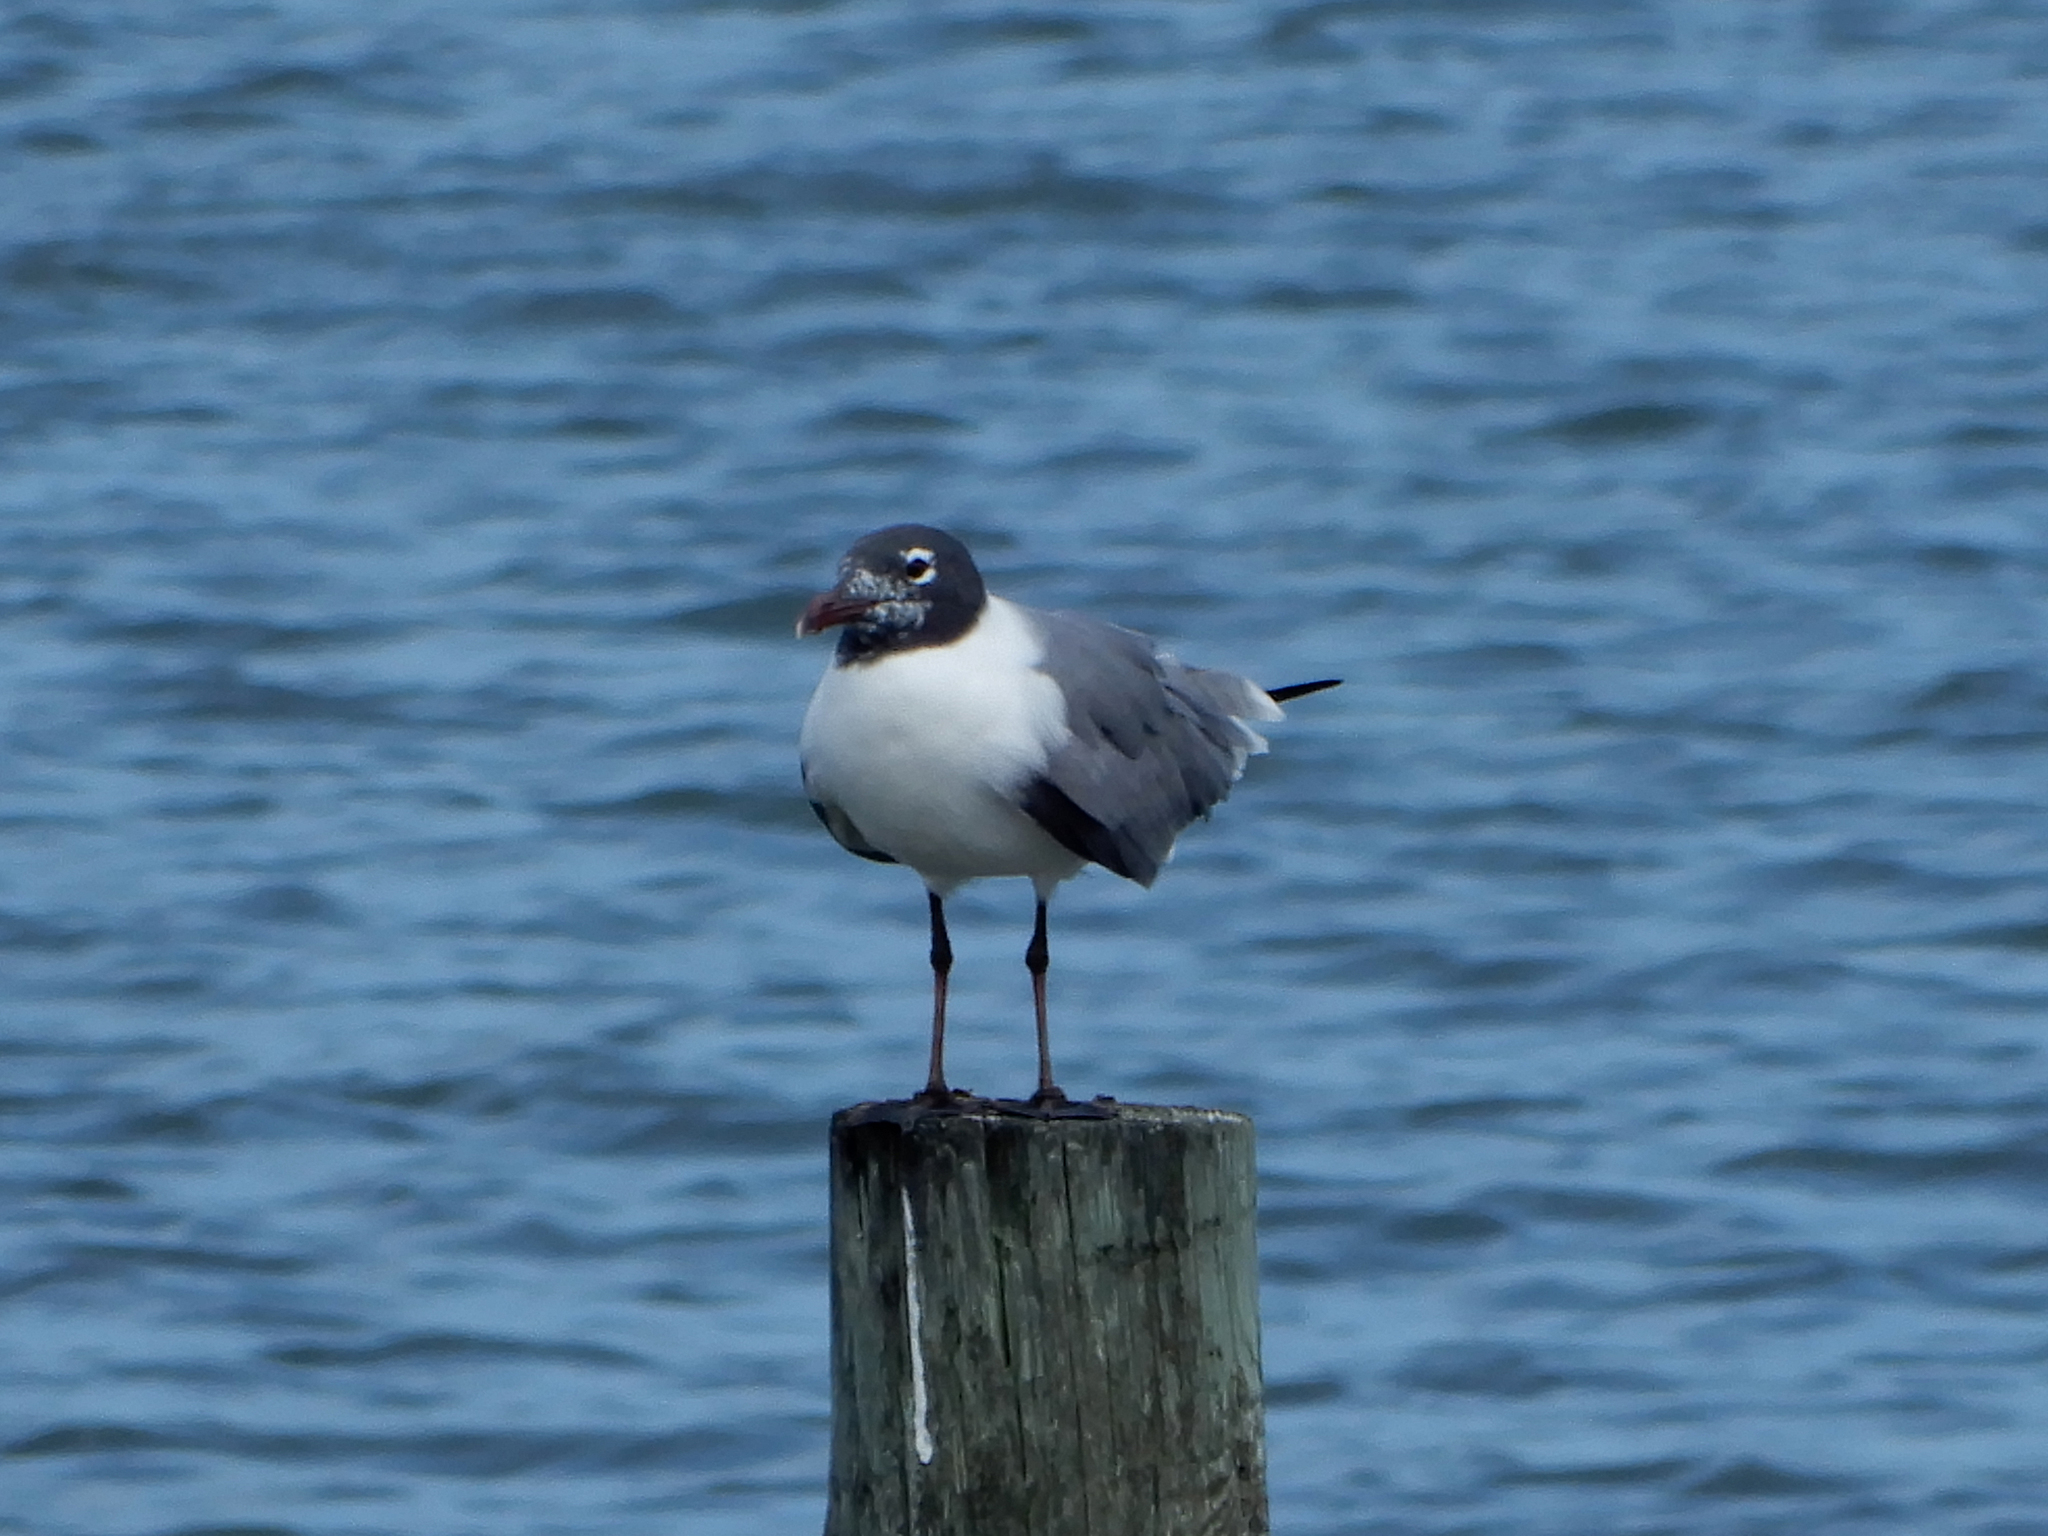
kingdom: Animalia
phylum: Chordata
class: Aves
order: Charadriiformes
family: Laridae
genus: Leucophaeus
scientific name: Leucophaeus atricilla
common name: Laughing gull
